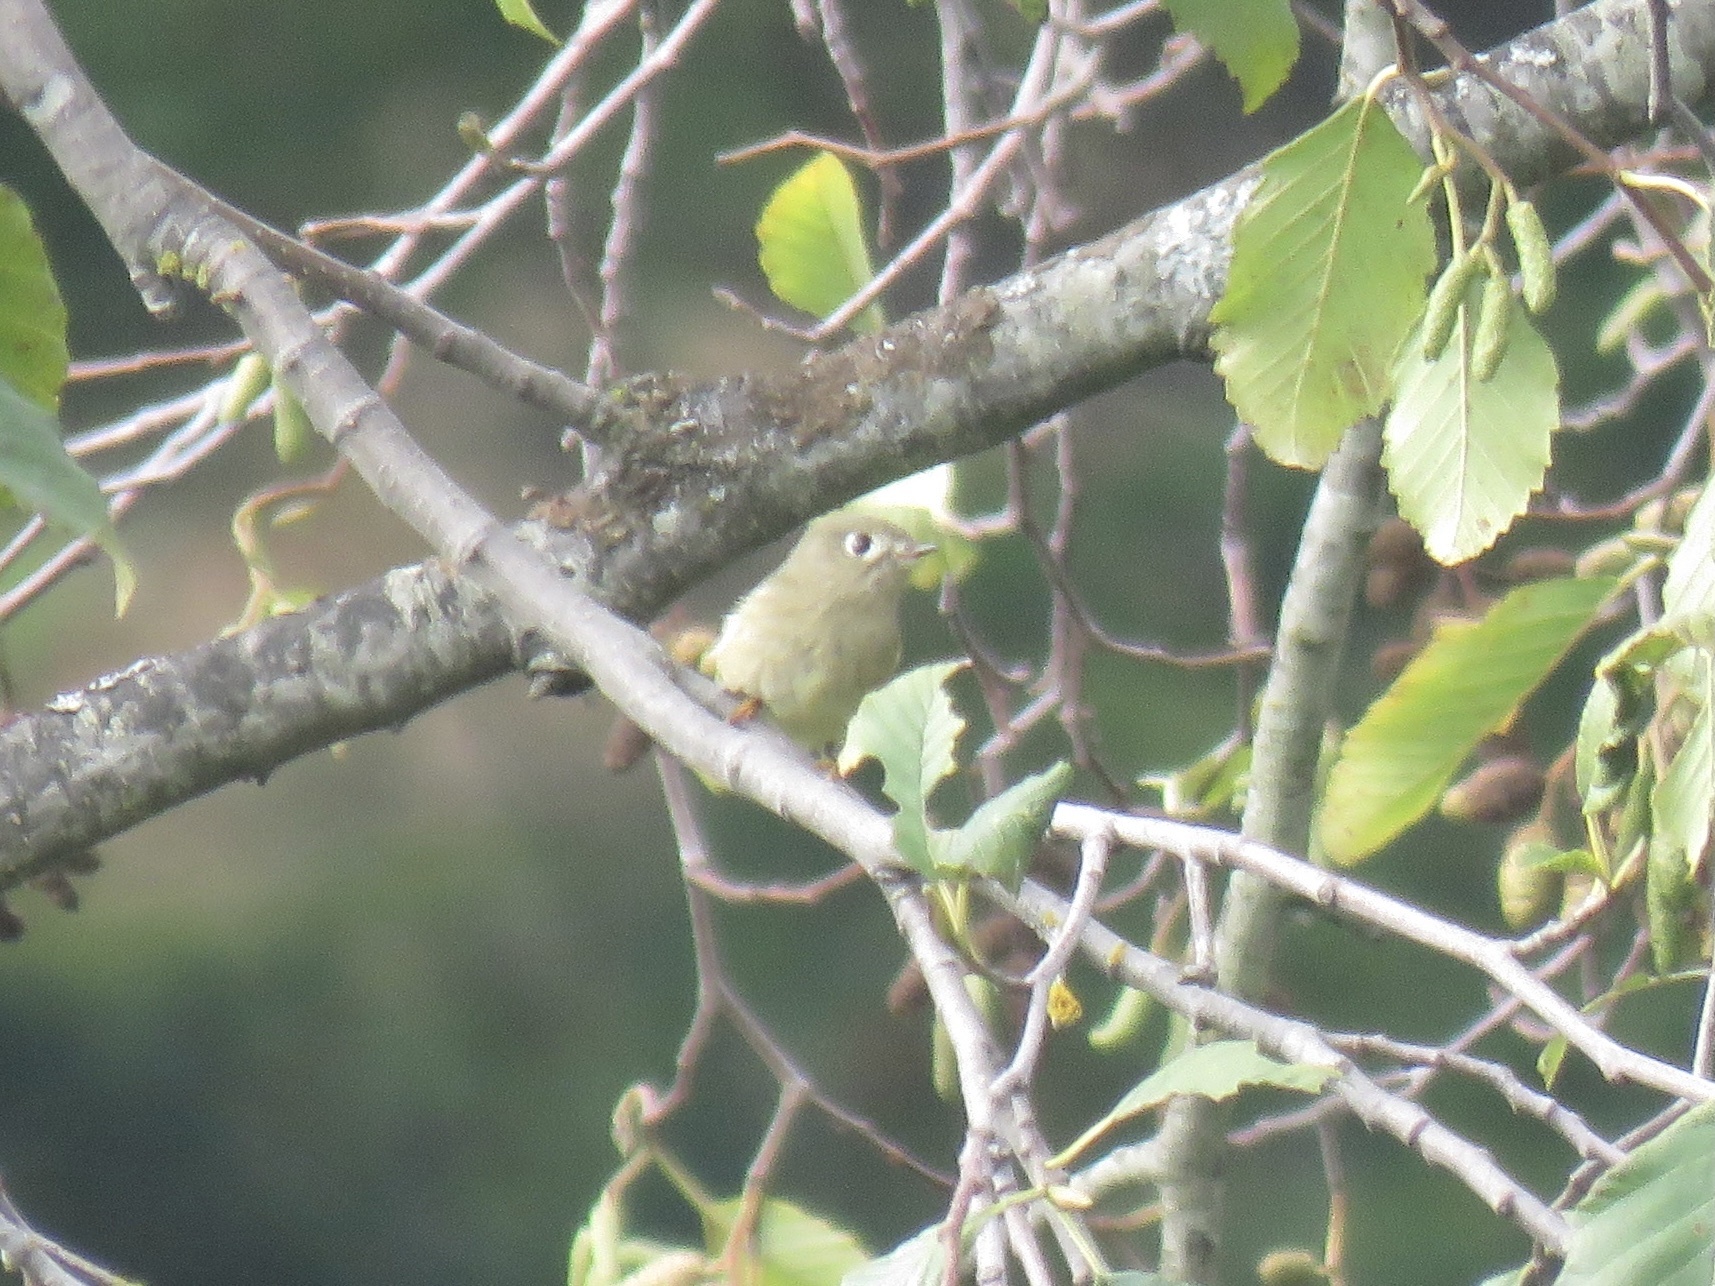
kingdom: Animalia
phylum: Chordata
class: Aves
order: Passeriformes
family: Regulidae
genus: Regulus
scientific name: Regulus calendula
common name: Ruby-crowned kinglet
